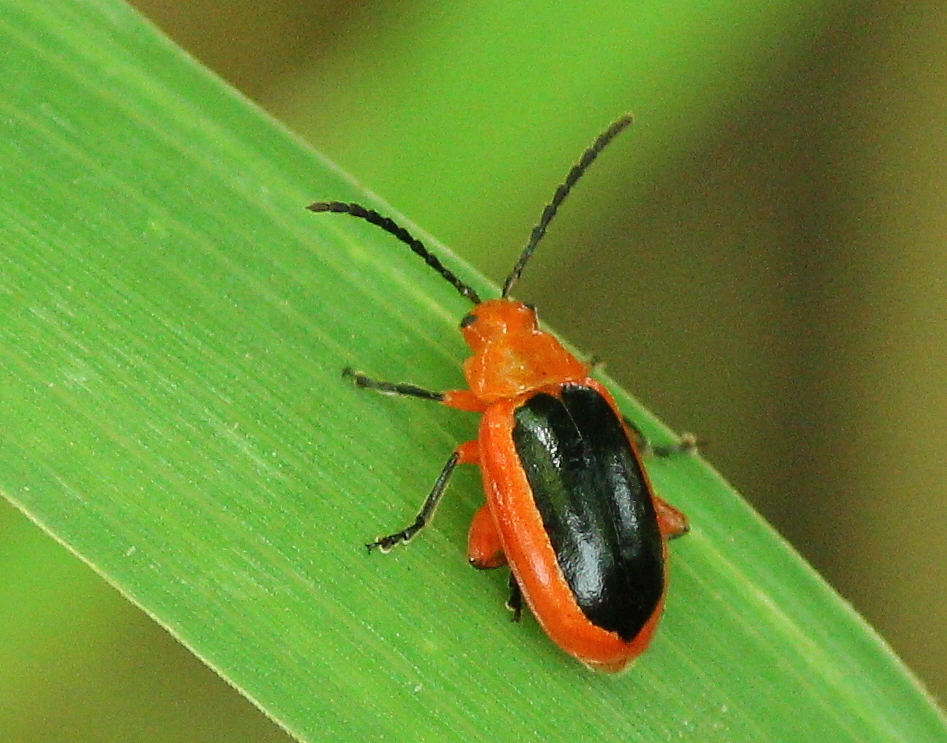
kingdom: Animalia
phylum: Arthropoda
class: Insecta
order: Coleoptera
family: Chrysomelidae
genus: Disonycha
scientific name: Disonycha discoidea
